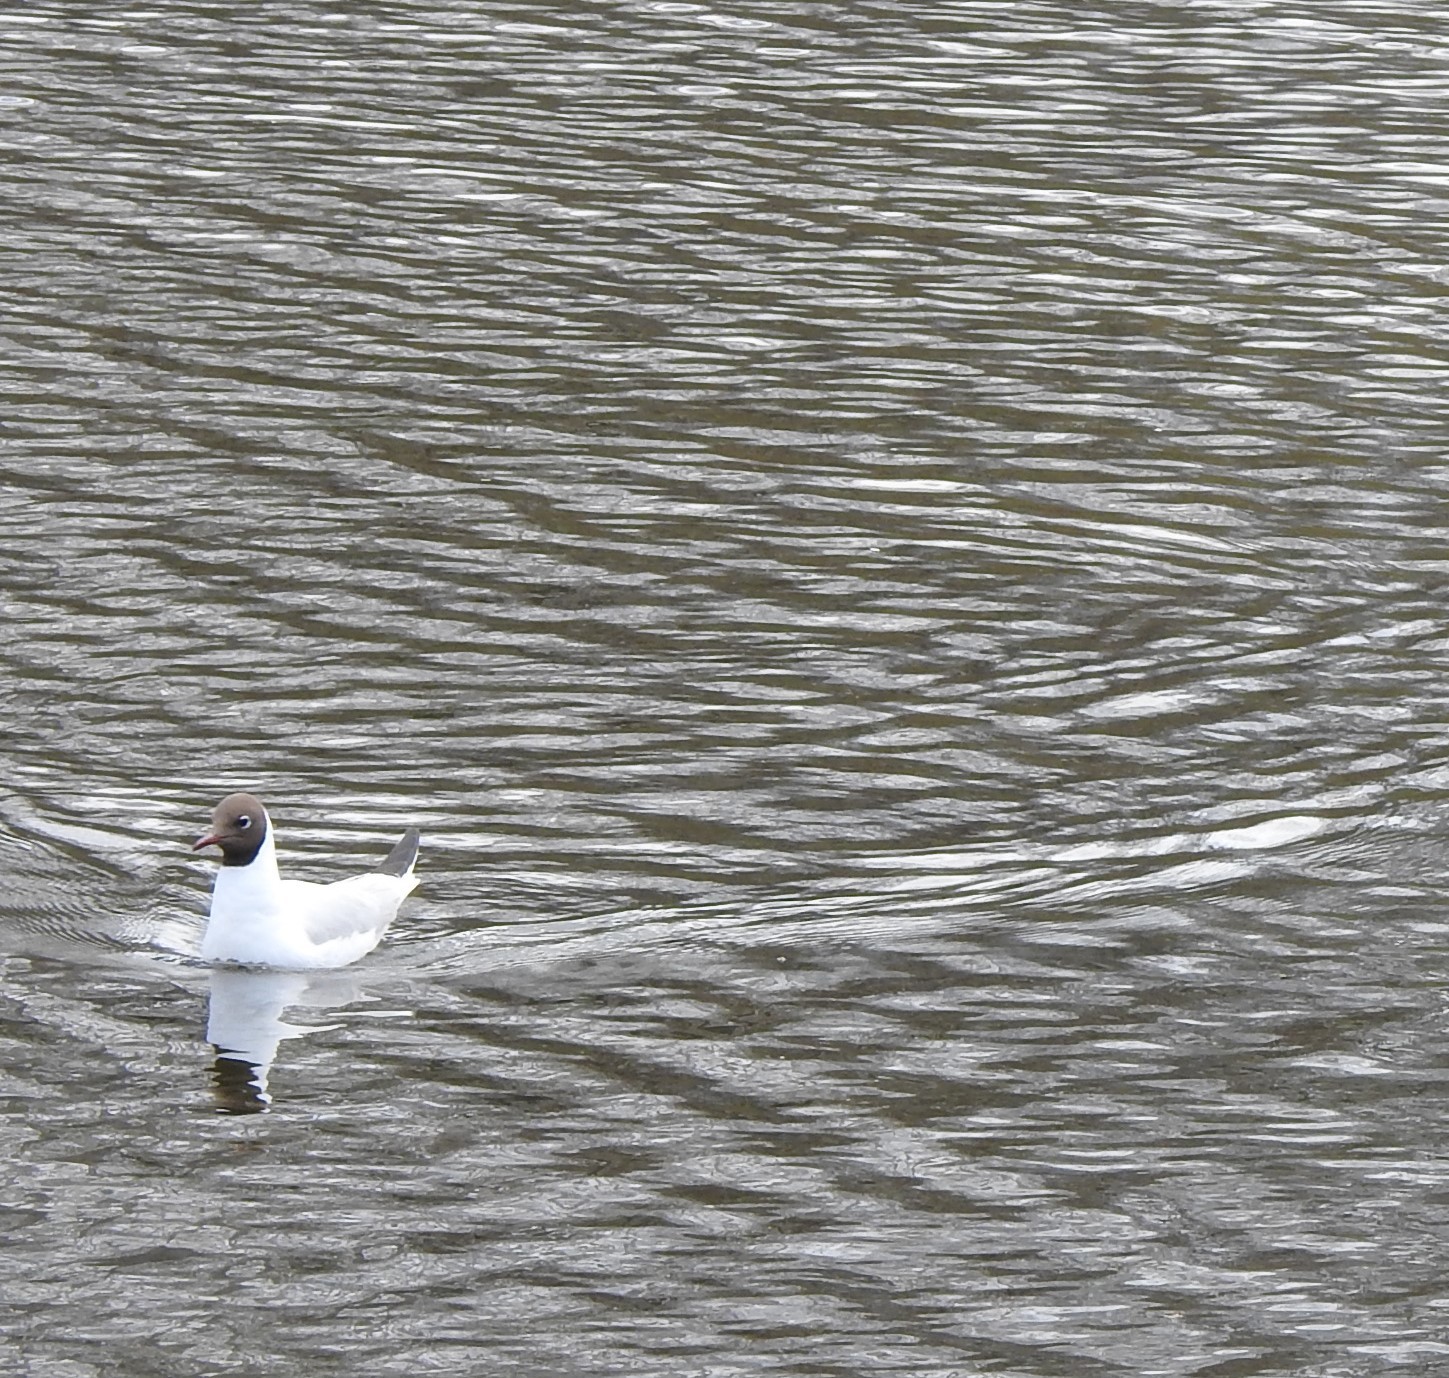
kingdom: Animalia
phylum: Chordata
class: Aves
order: Charadriiformes
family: Laridae
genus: Chroicocephalus
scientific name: Chroicocephalus ridibundus
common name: Black-headed gull
